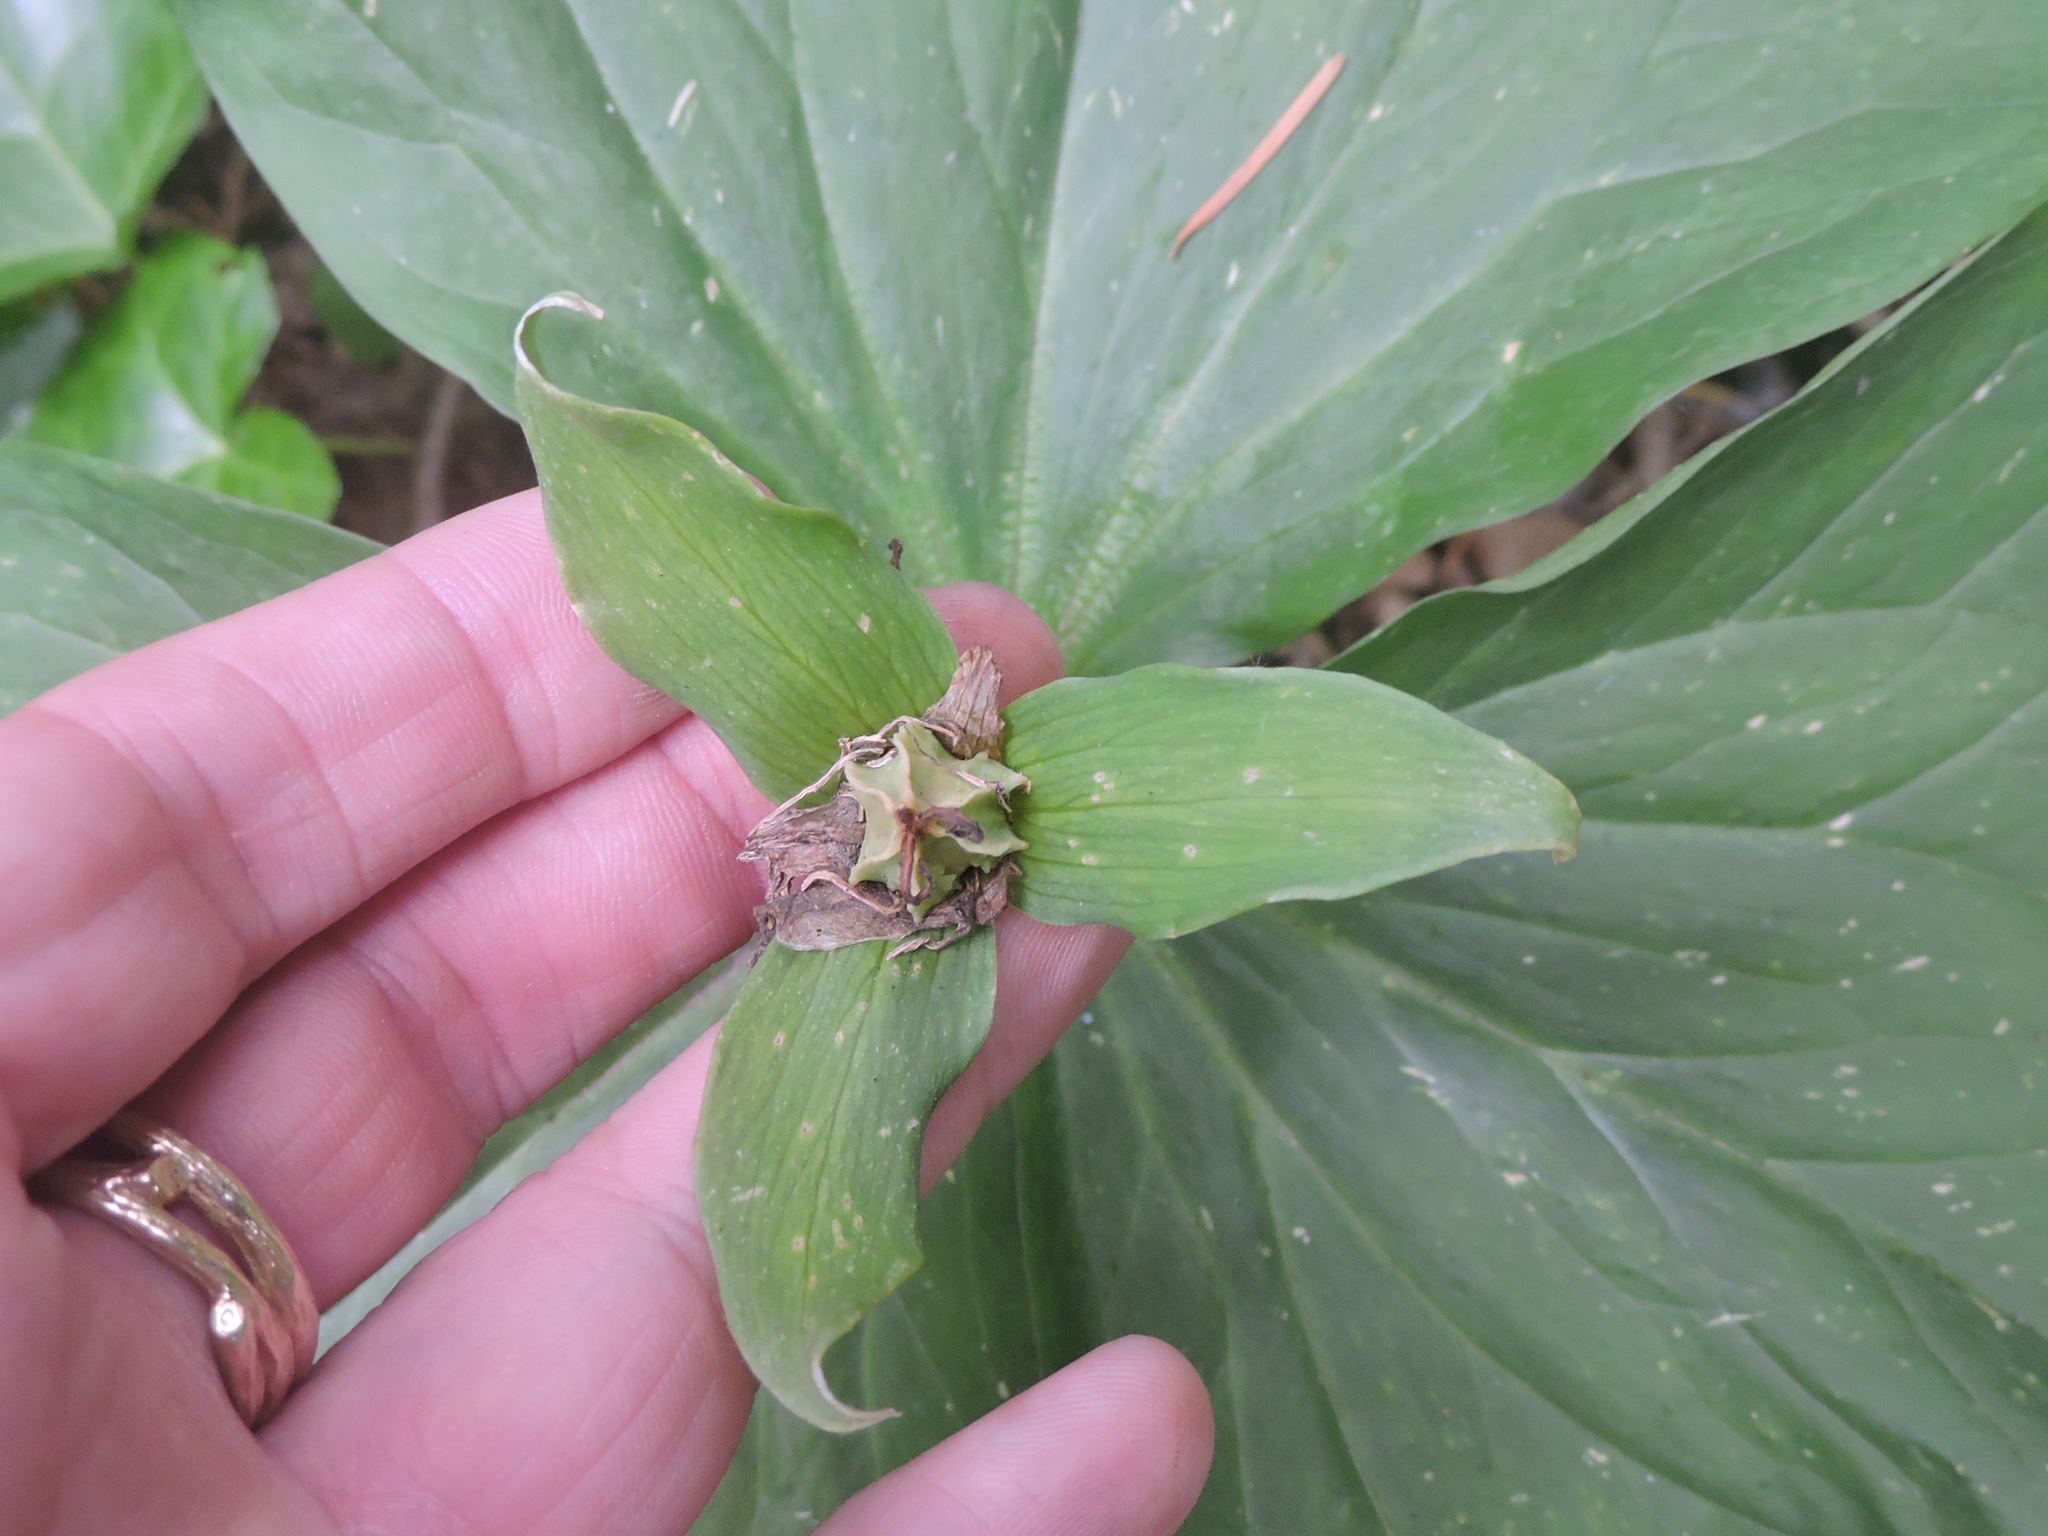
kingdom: Plantae
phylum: Tracheophyta
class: Liliopsida
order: Liliales
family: Melanthiaceae
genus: Trillium
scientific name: Trillium ovatum
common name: Pacific trillium
